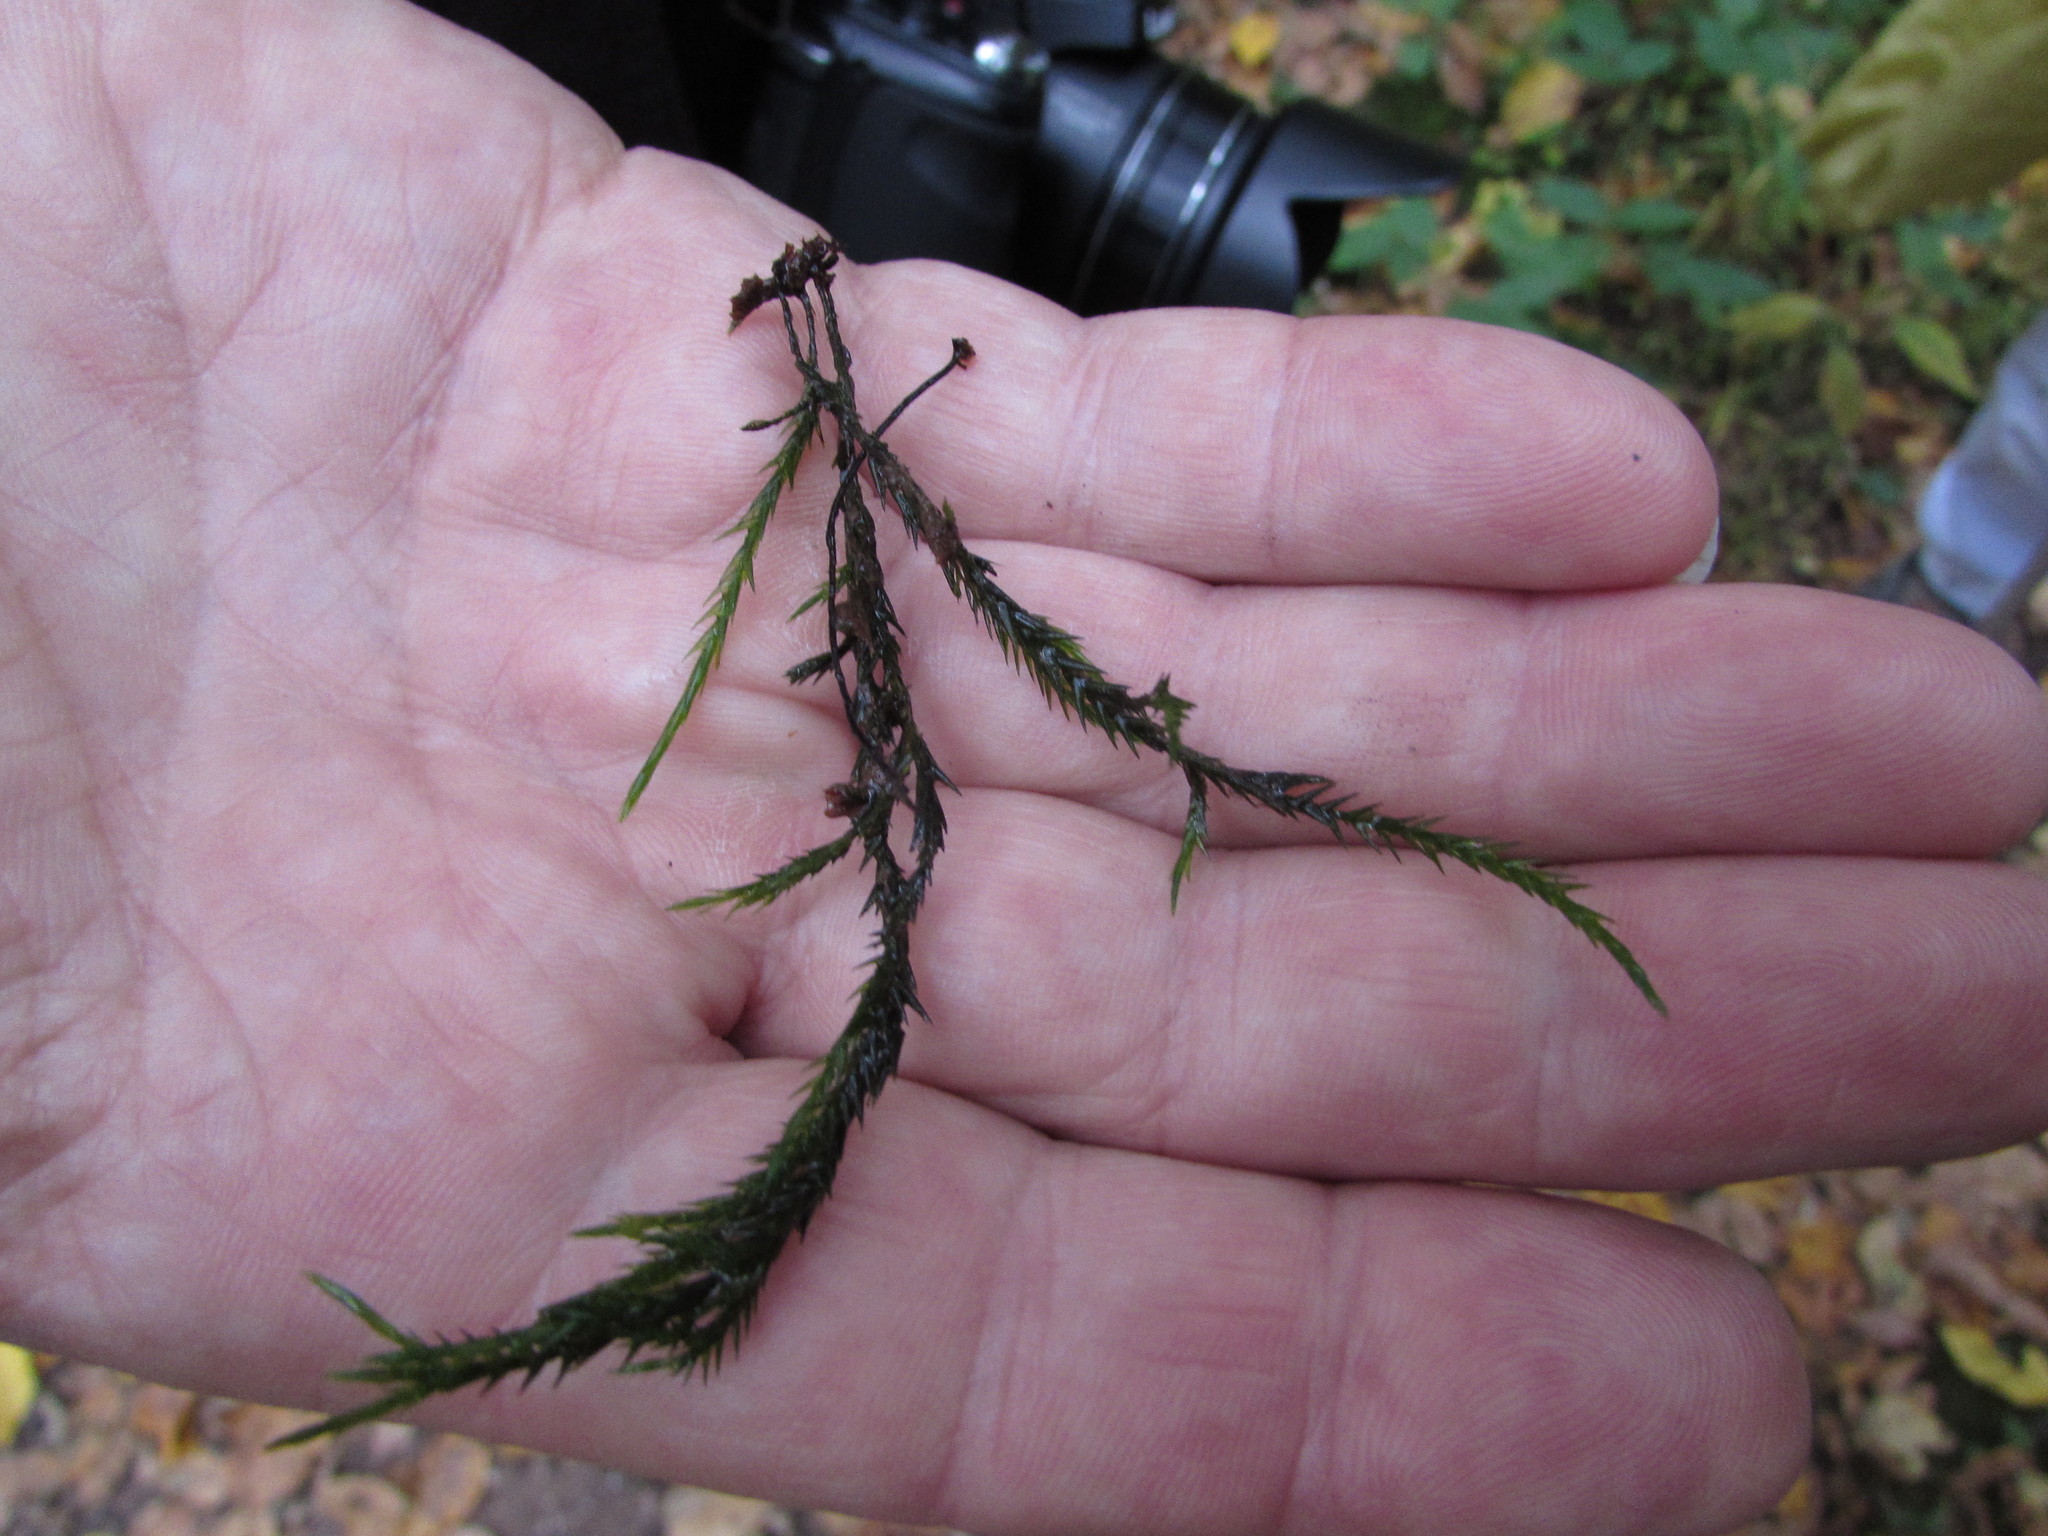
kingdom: Plantae
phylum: Bryophyta
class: Bryopsida
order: Hypnales
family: Fontinalaceae
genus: Fontinalis
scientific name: Fontinalis dalecarlica
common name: Slender water moss
